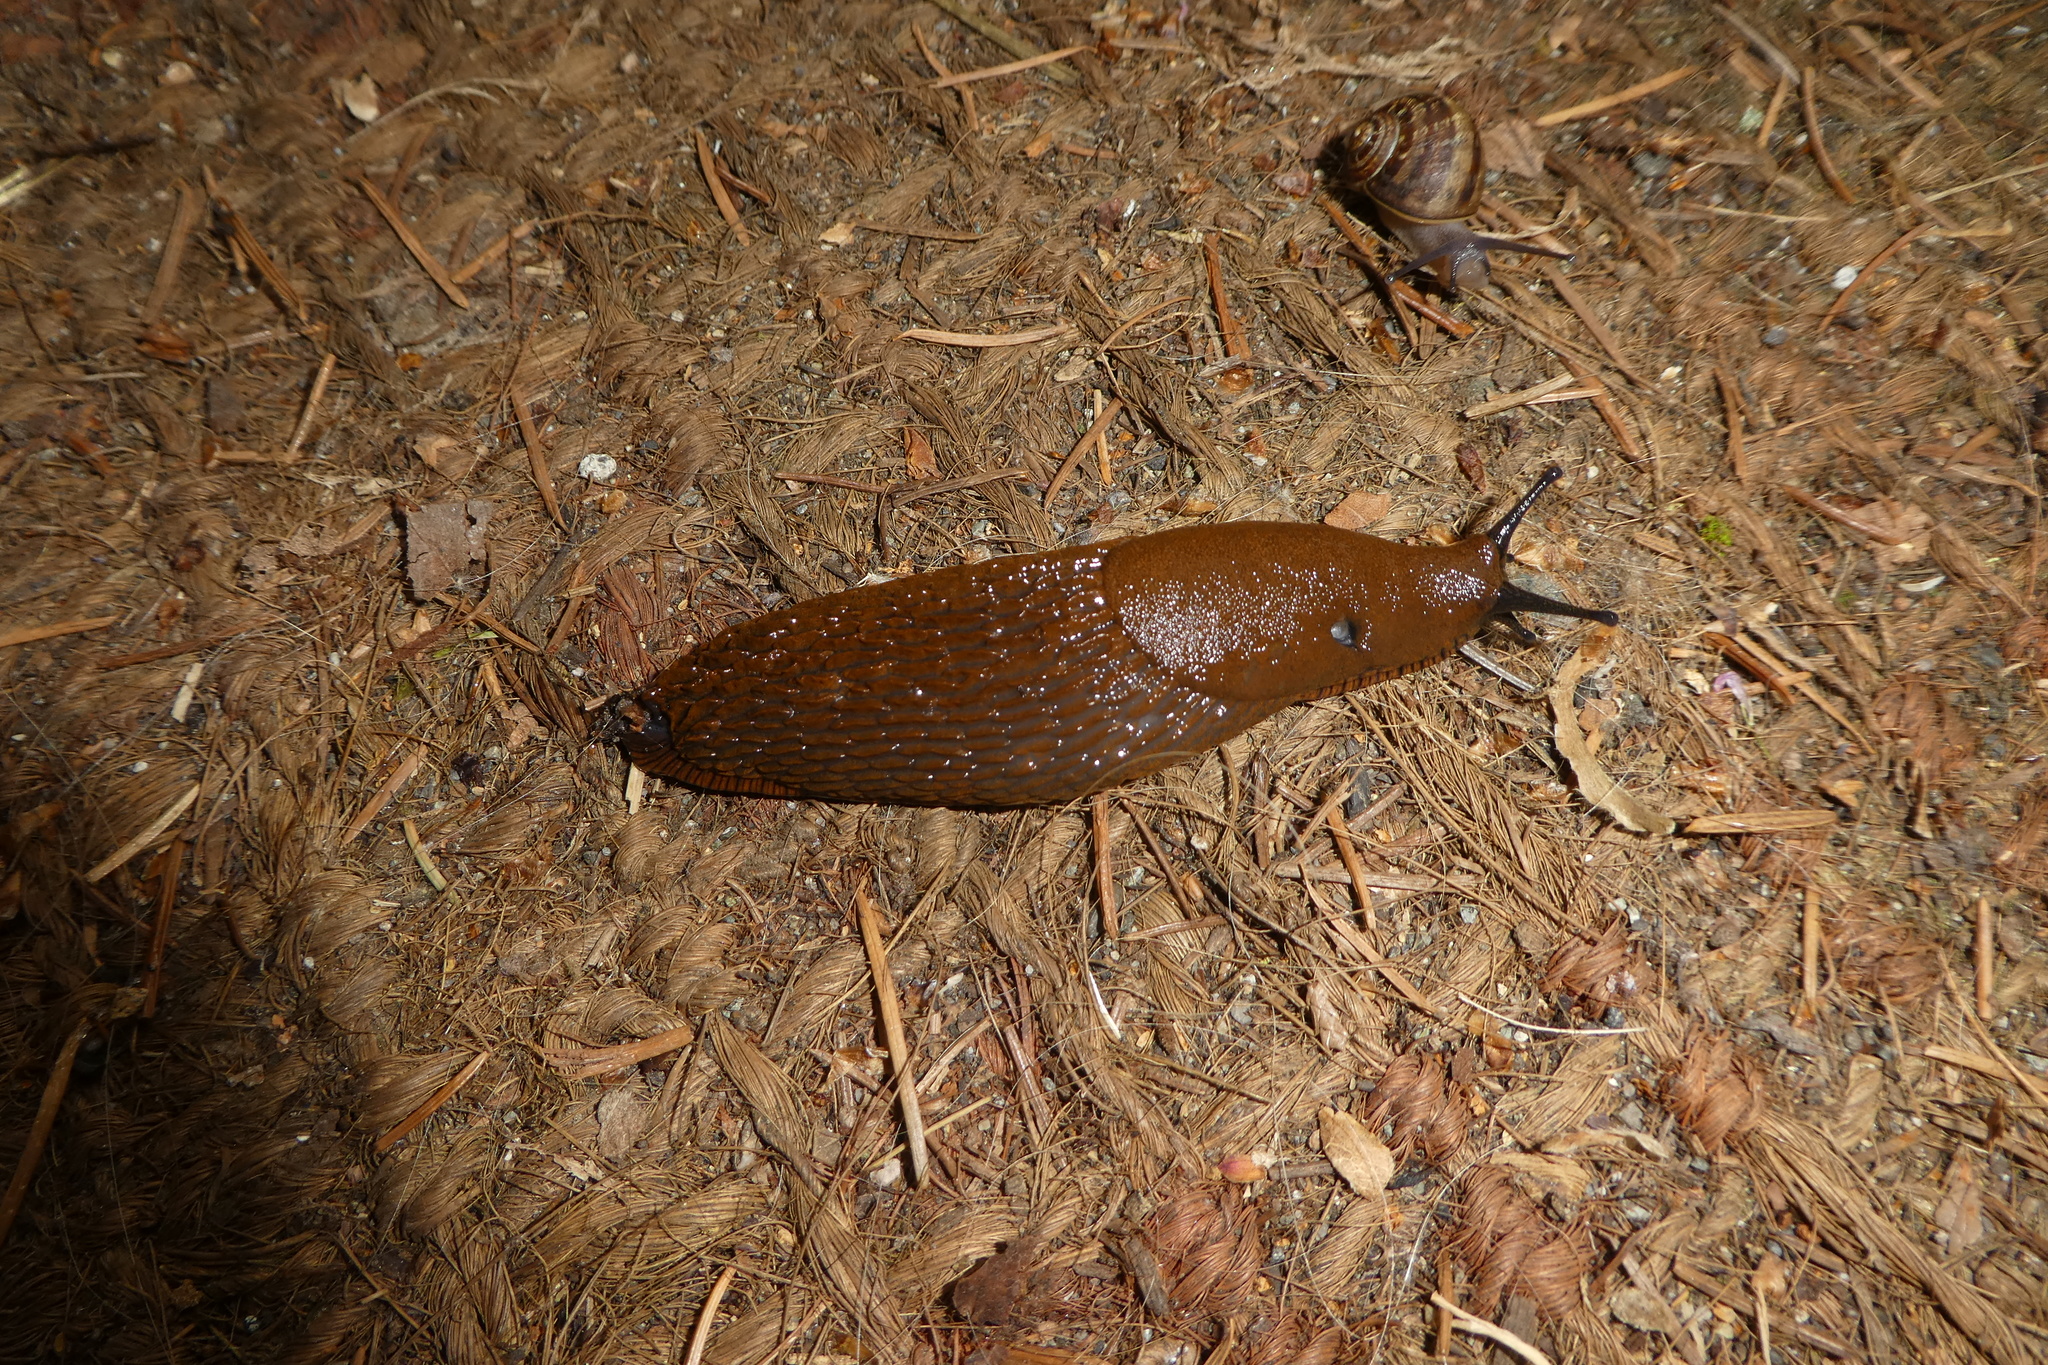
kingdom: Animalia
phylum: Mollusca
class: Gastropoda
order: Stylommatophora
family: Arionidae
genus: Arion
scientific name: Arion
